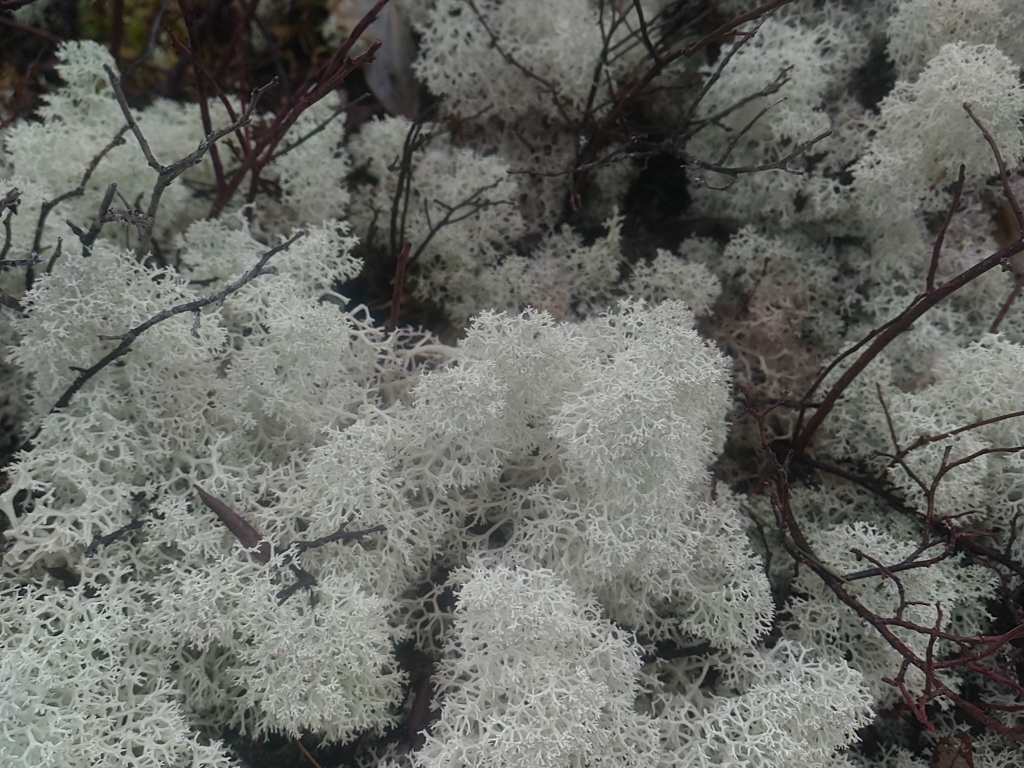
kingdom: Fungi
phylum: Ascomycota
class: Lecanoromycetes
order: Lecanorales
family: Cladoniaceae
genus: Cladonia
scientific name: Cladonia stellaris
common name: Star-tipped reindeer lichen
